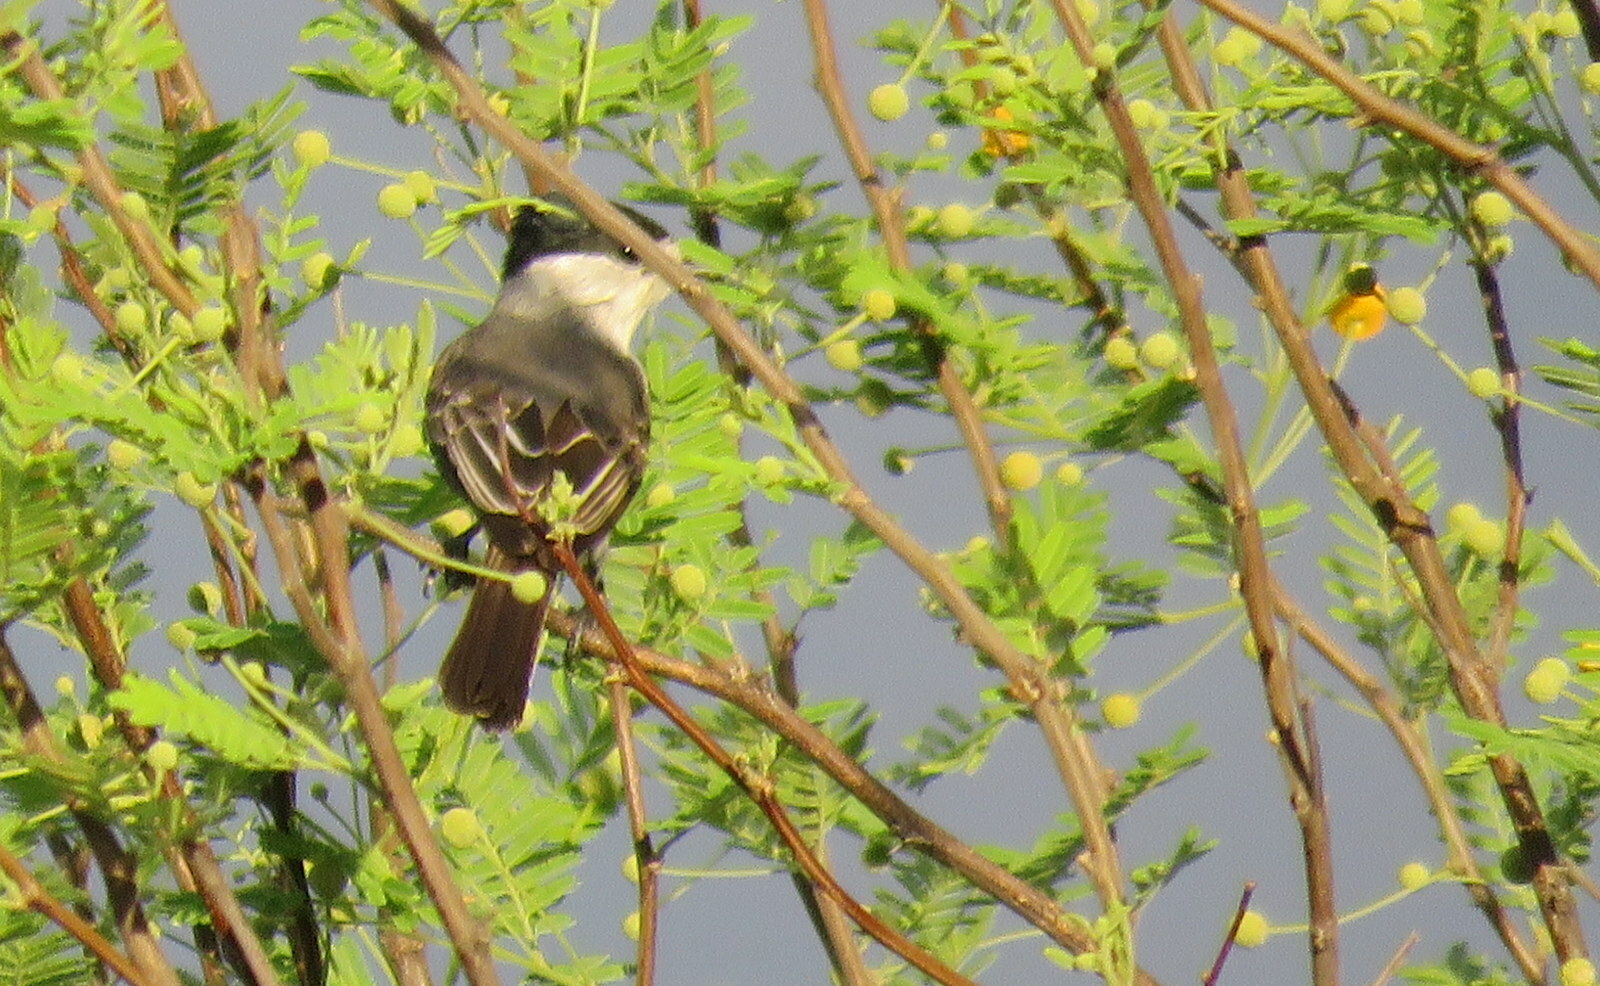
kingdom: Animalia
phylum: Chordata
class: Aves
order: Passeriformes
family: Cotingidae
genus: Xenopsaris
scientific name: Xenopsaris albinucha
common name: White-naped xenopsaris
